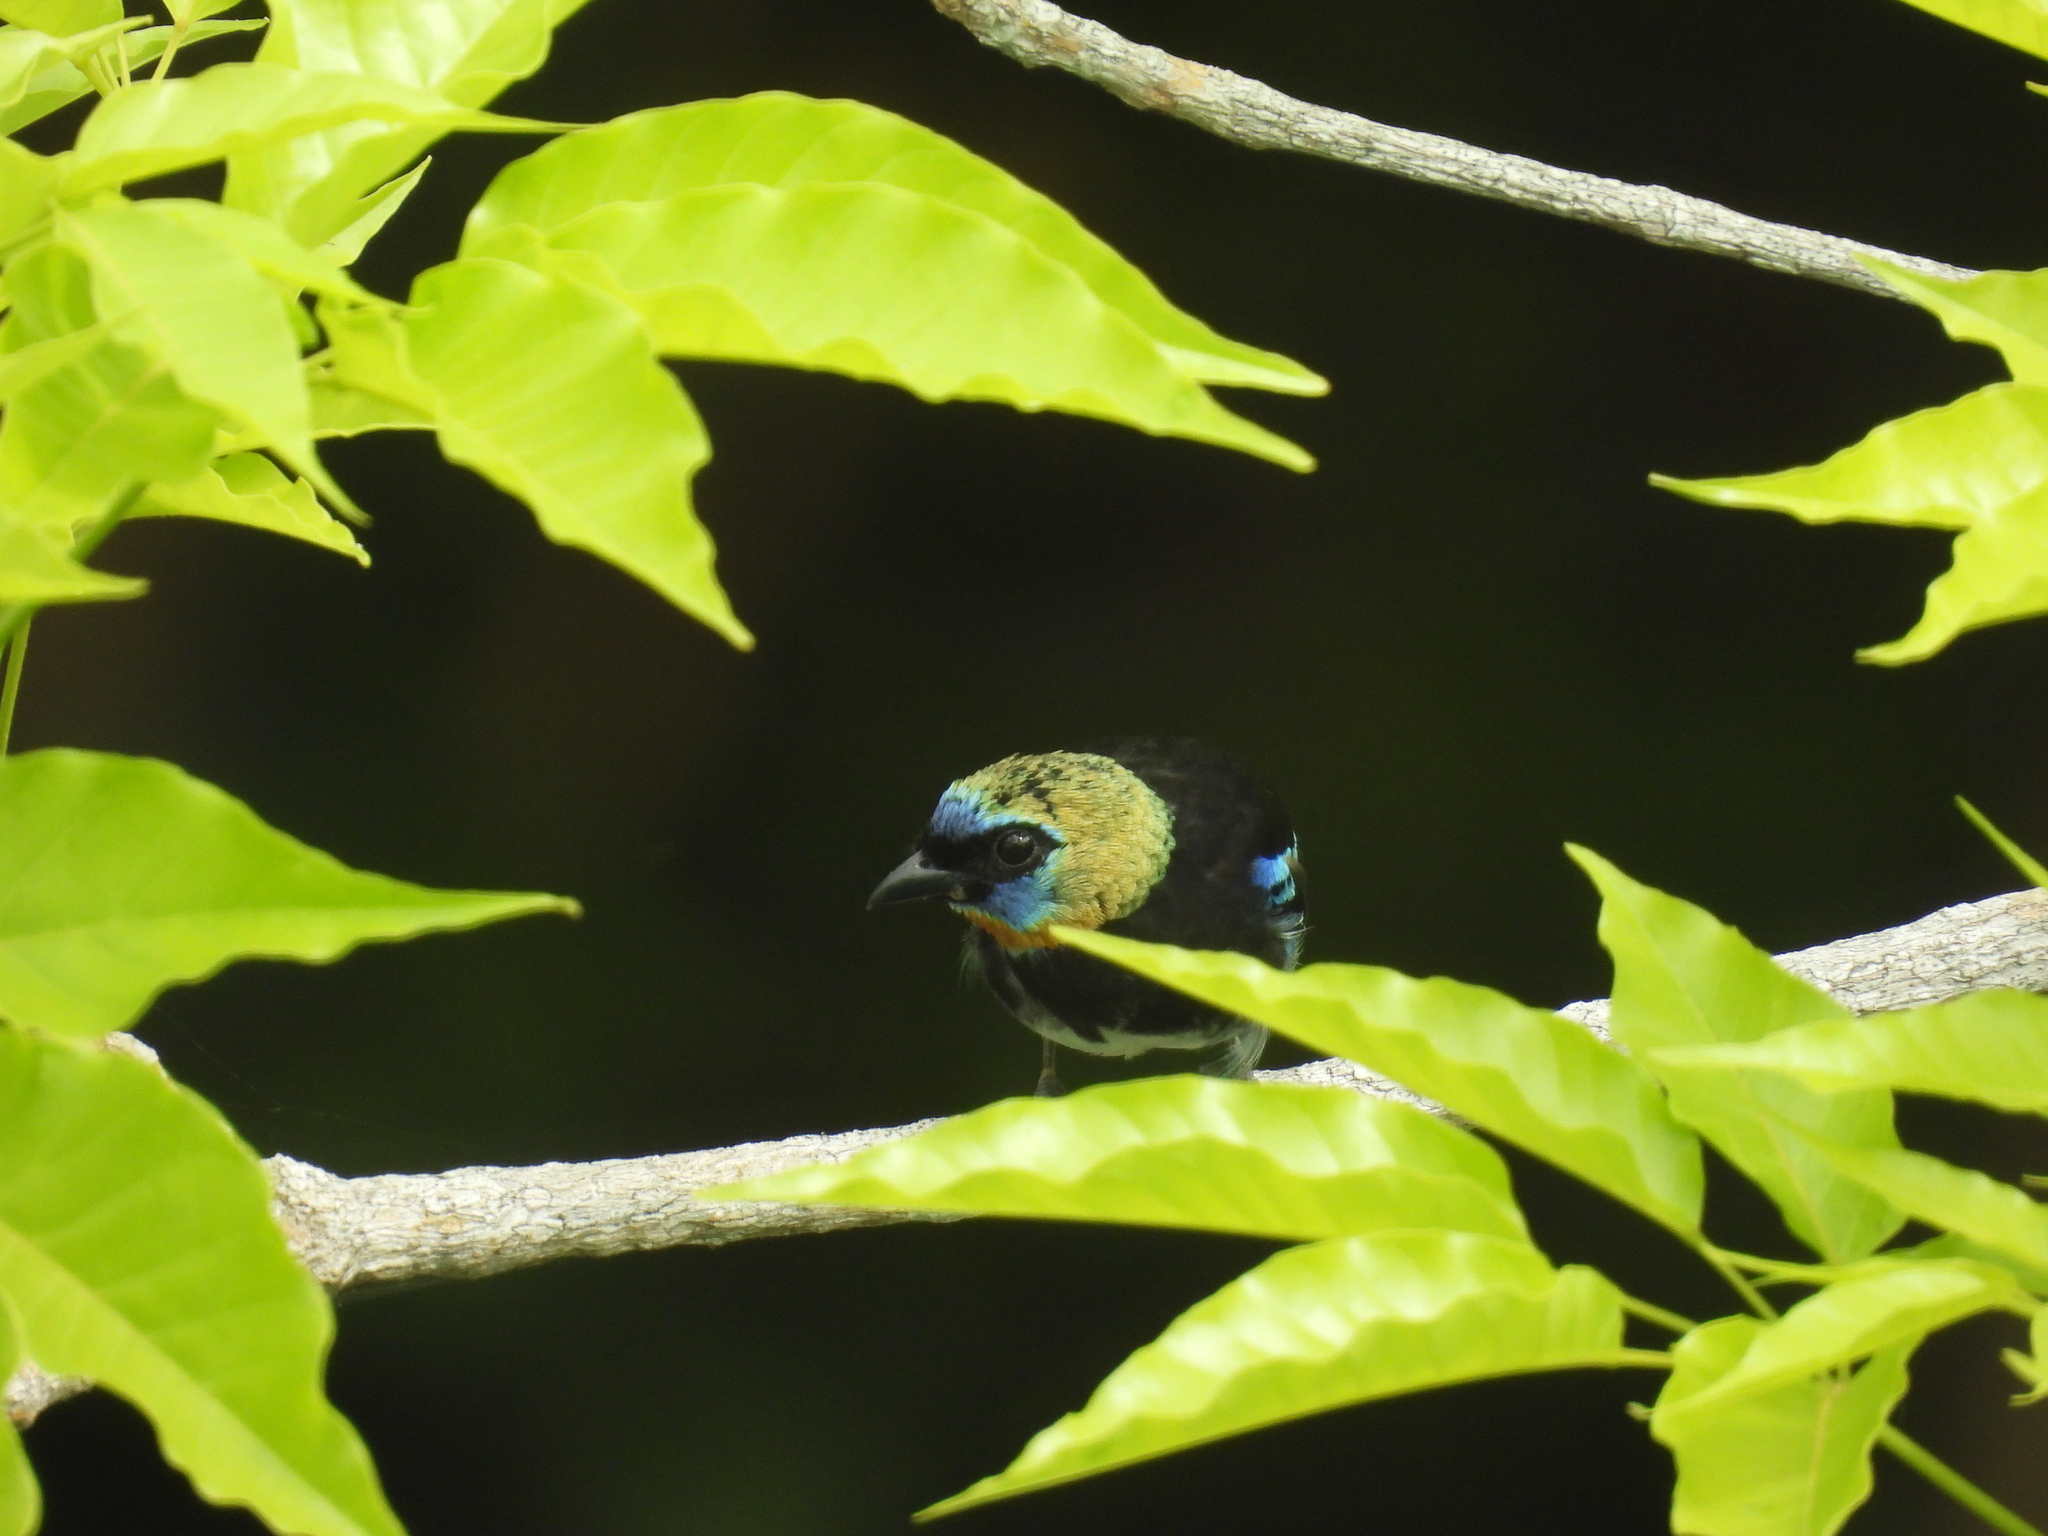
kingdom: Animalia
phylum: Chordata
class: Aves
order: Passeriformes
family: Thraupidae
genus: Stilpnia
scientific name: Stilpnia larvata
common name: Golden-hooded tanager
